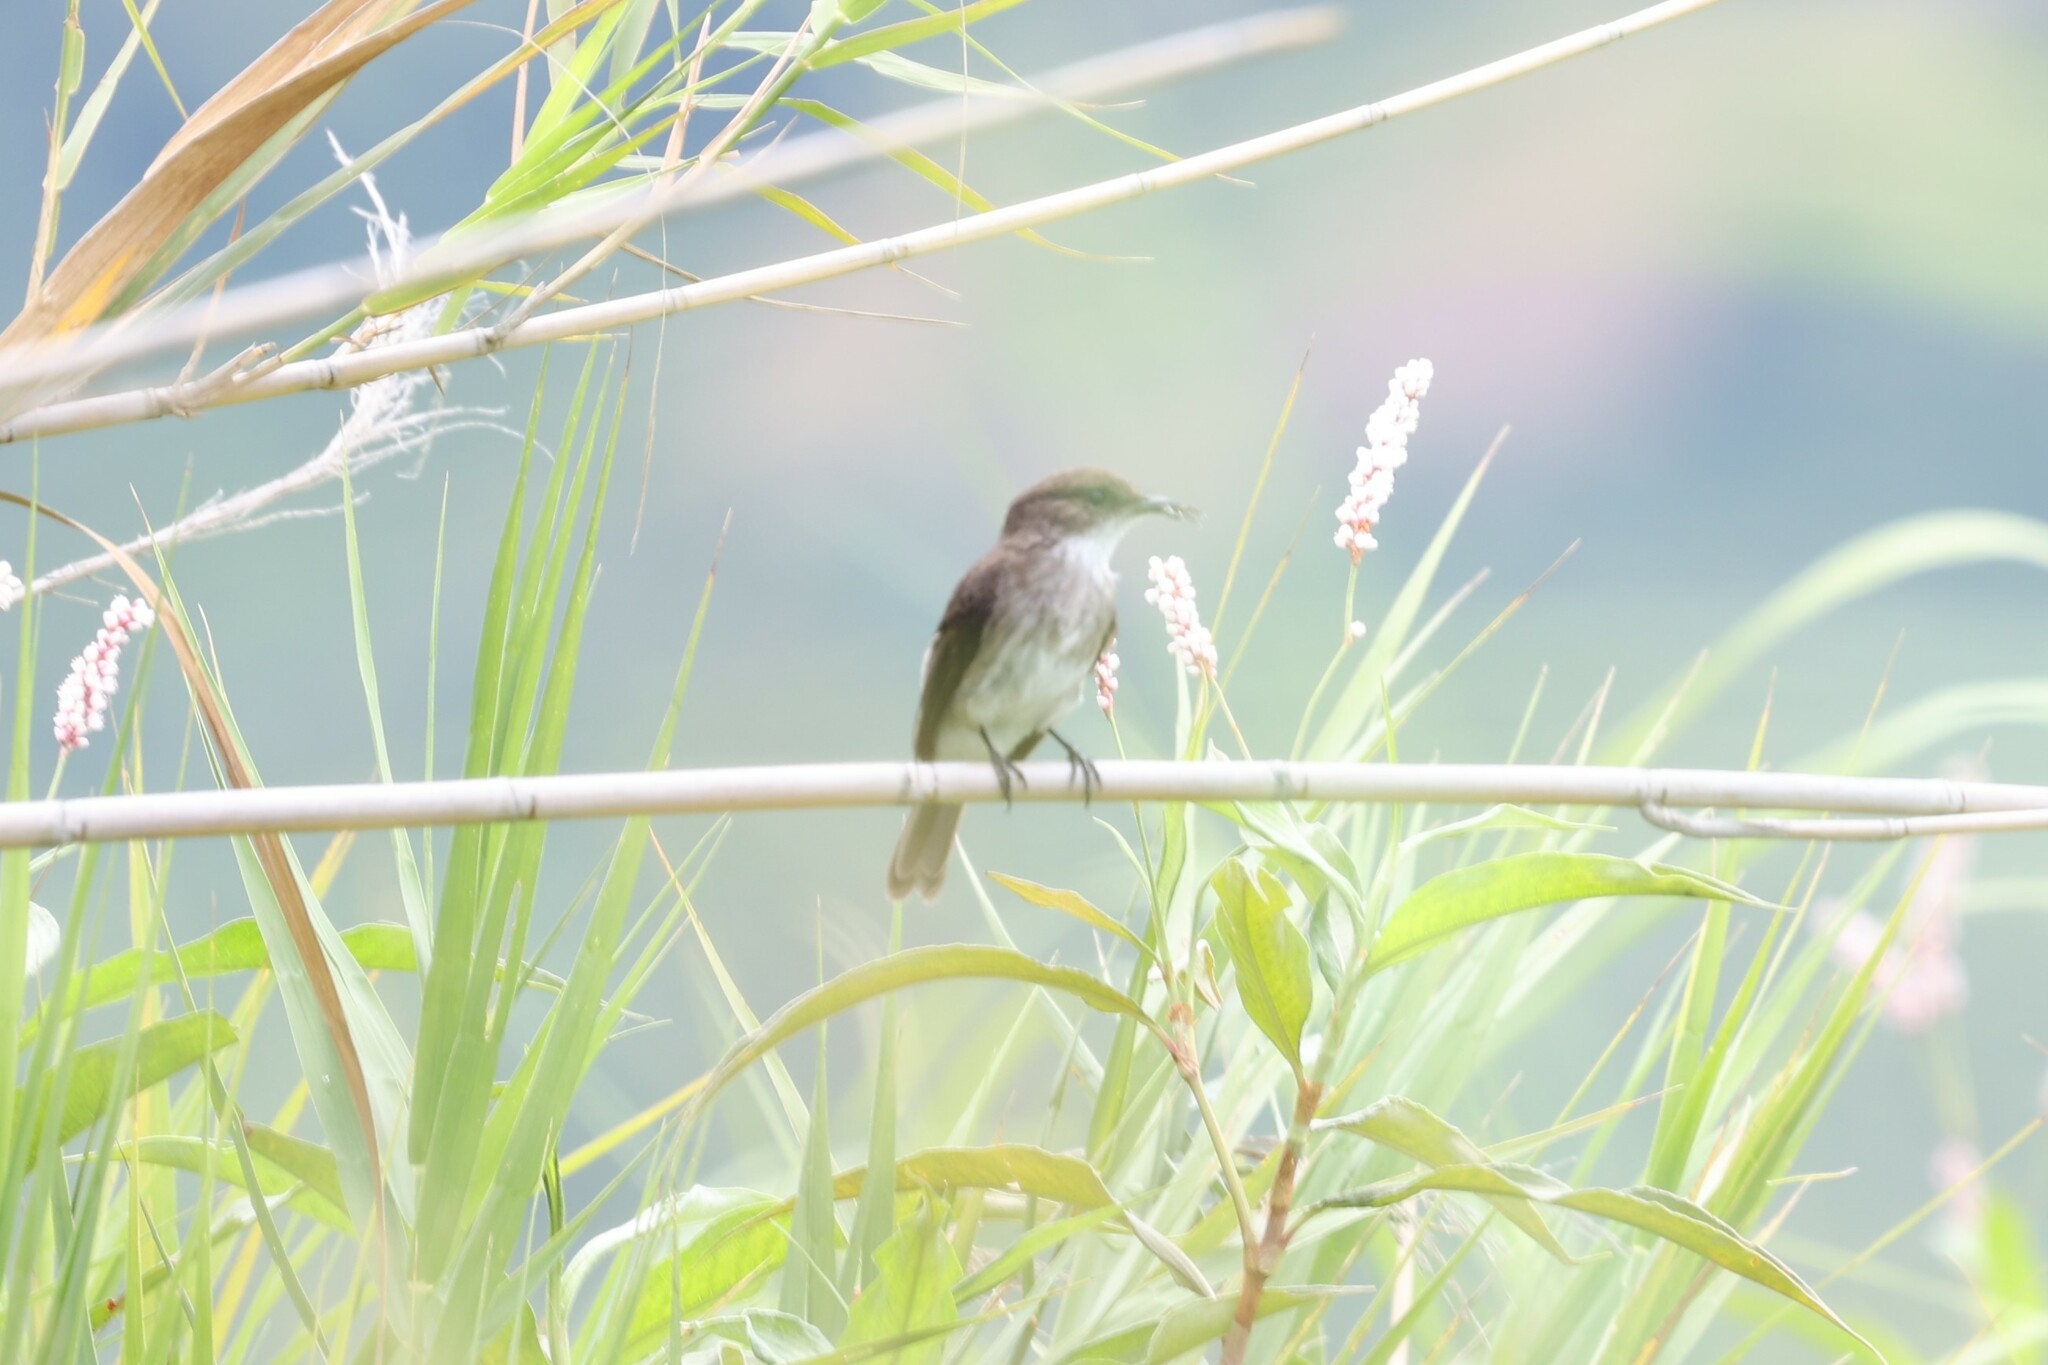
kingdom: Animalia
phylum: Chordata
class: Aves
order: Passeriformes
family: Muscicapidae
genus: Muscicapa
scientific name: Muscicapa aquatica
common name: Swamp flycatcher
